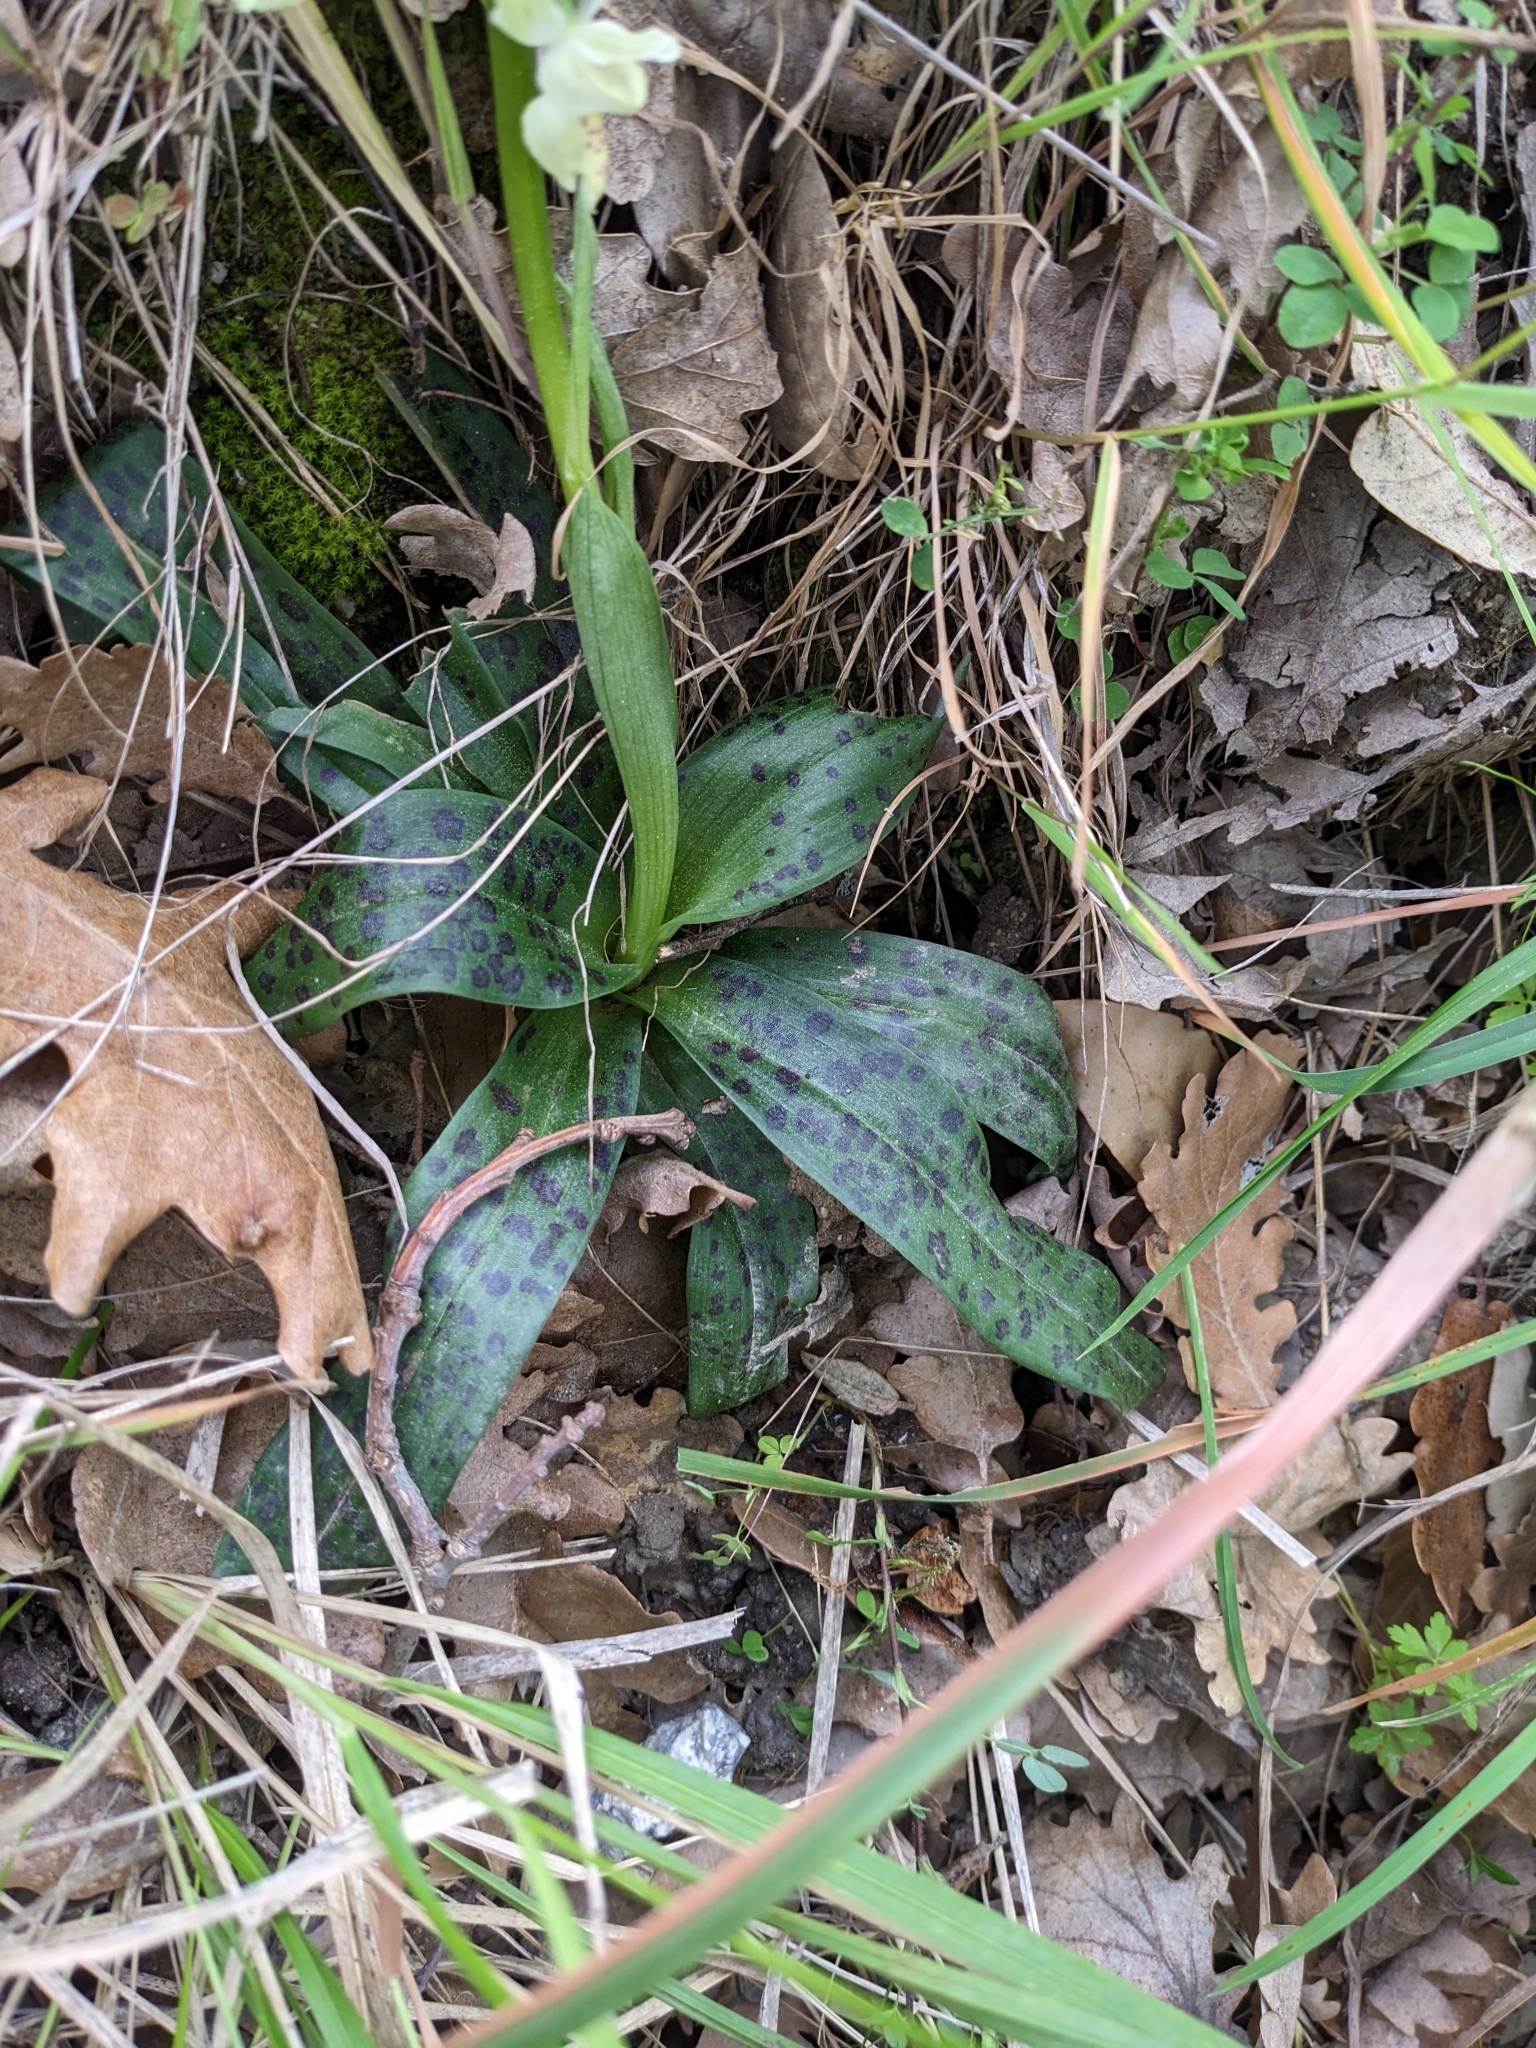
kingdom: Plantae
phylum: Tracheophyta
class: Liliopsida
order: Asparagales
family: Orchidaceae
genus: Orchis
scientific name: Orchis provincialis
